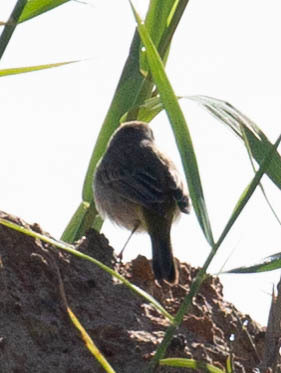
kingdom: Animalia
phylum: Chordata
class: Aves
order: Passeriformes
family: Parulidae
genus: Setophaga
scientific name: Setophaga palmarum
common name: Palm warbler
